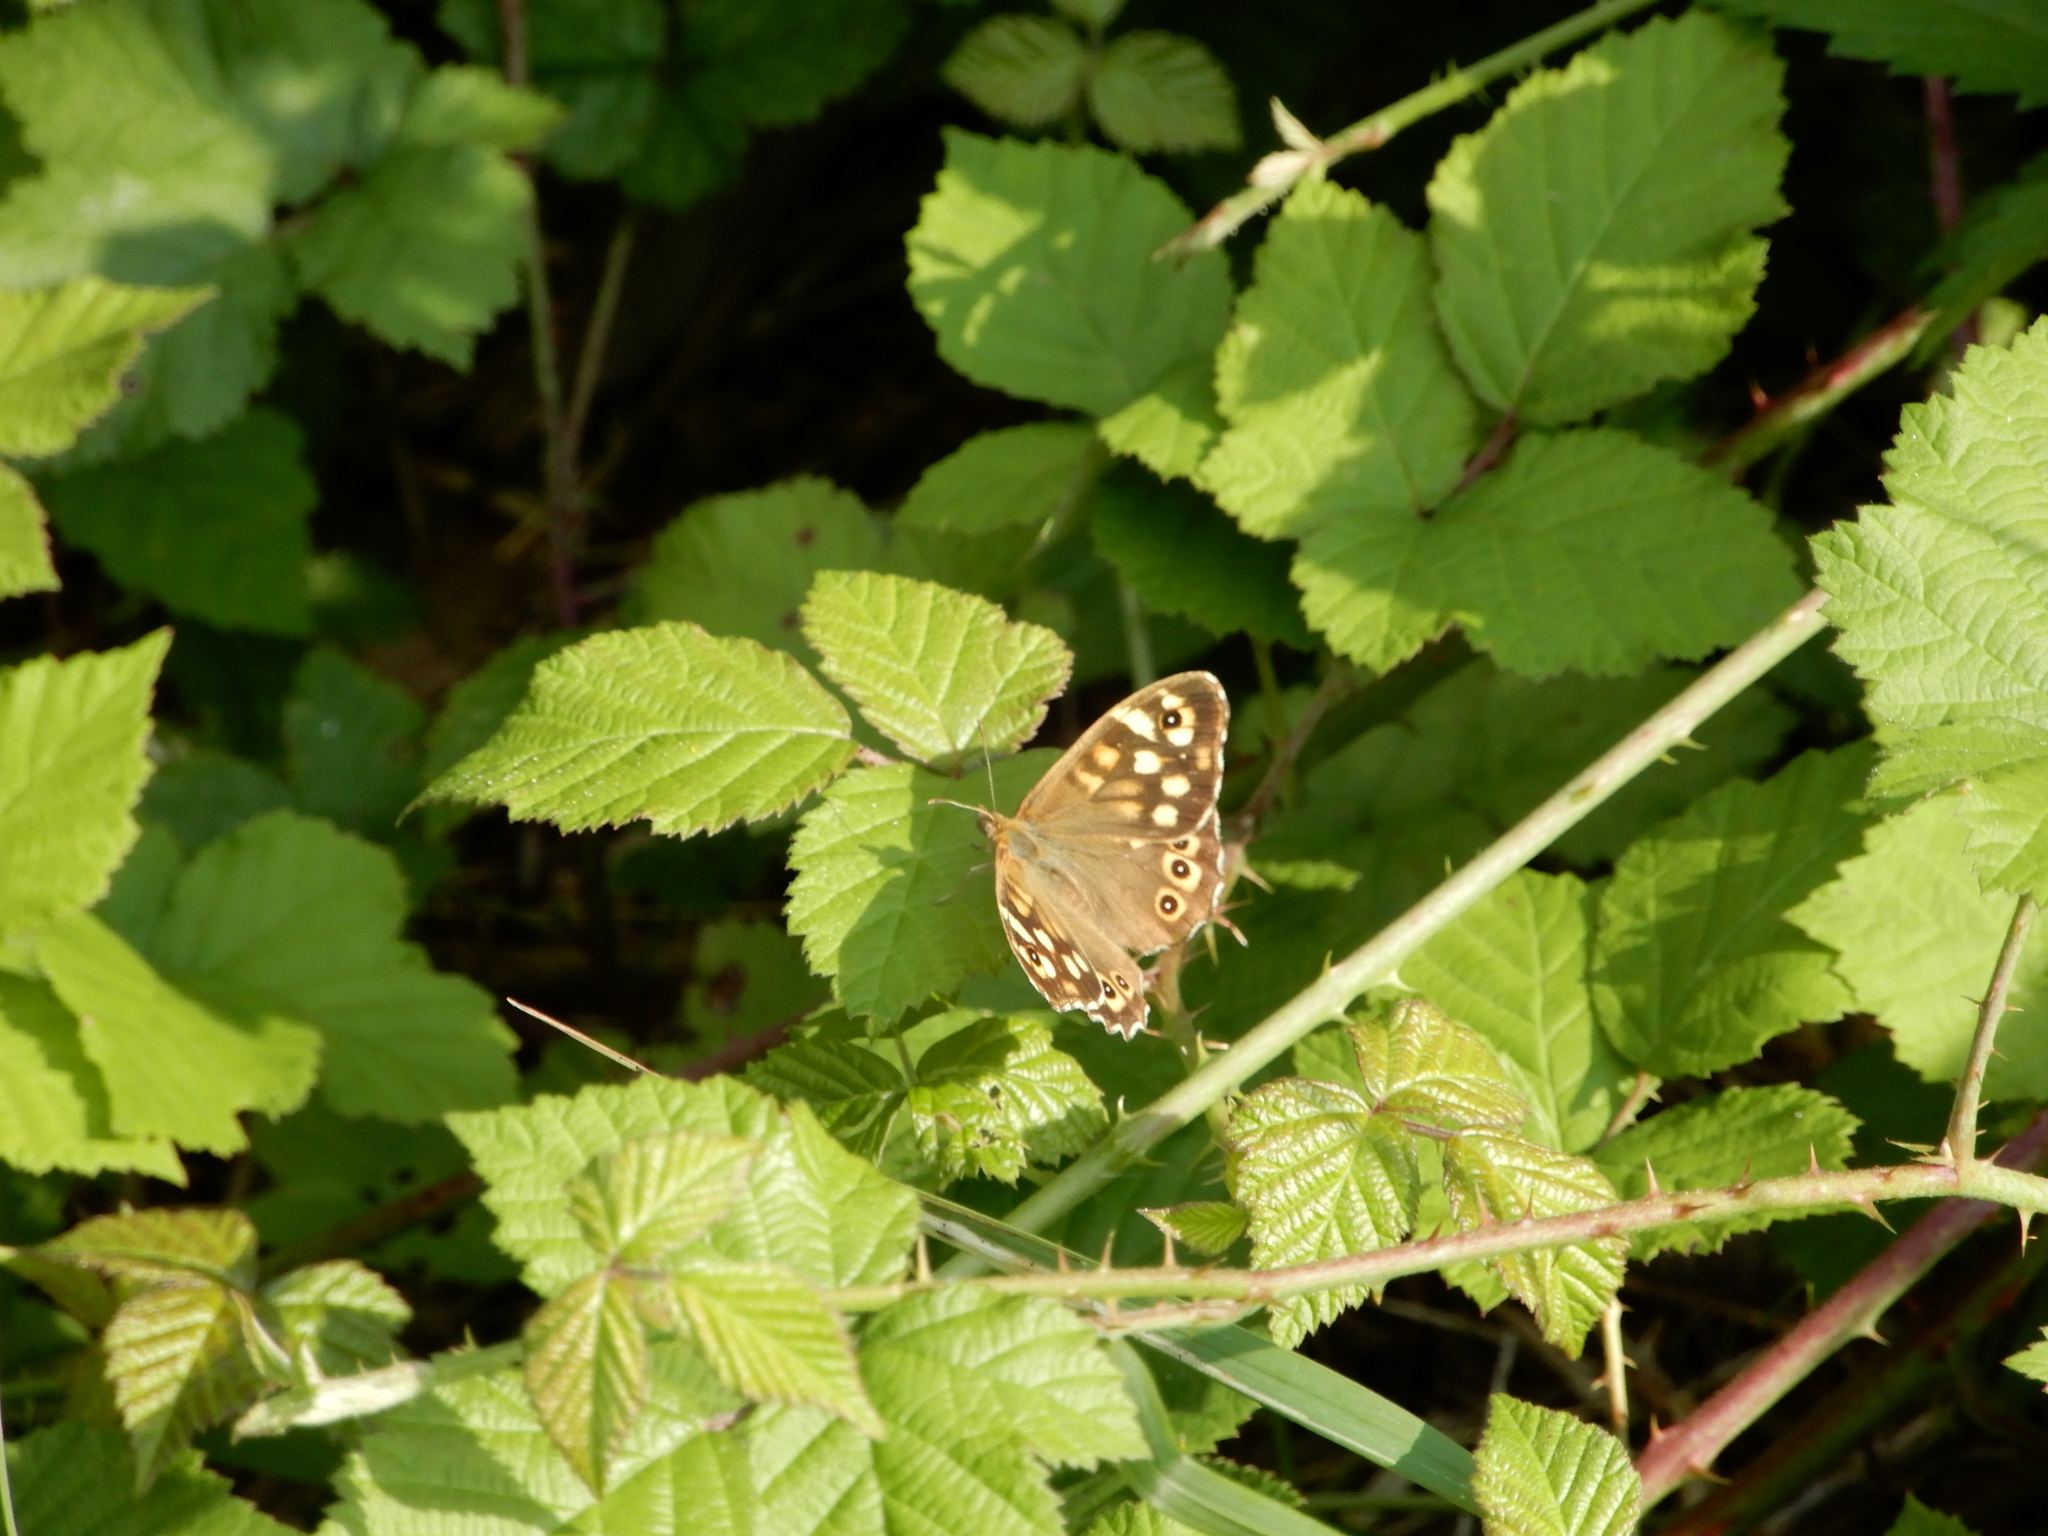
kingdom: Animalia
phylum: Arthropoda
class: Insecta
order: Lepidoptera
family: Nymphalidae
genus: Pararge
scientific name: Pararge aegeria
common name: Speckled wood
